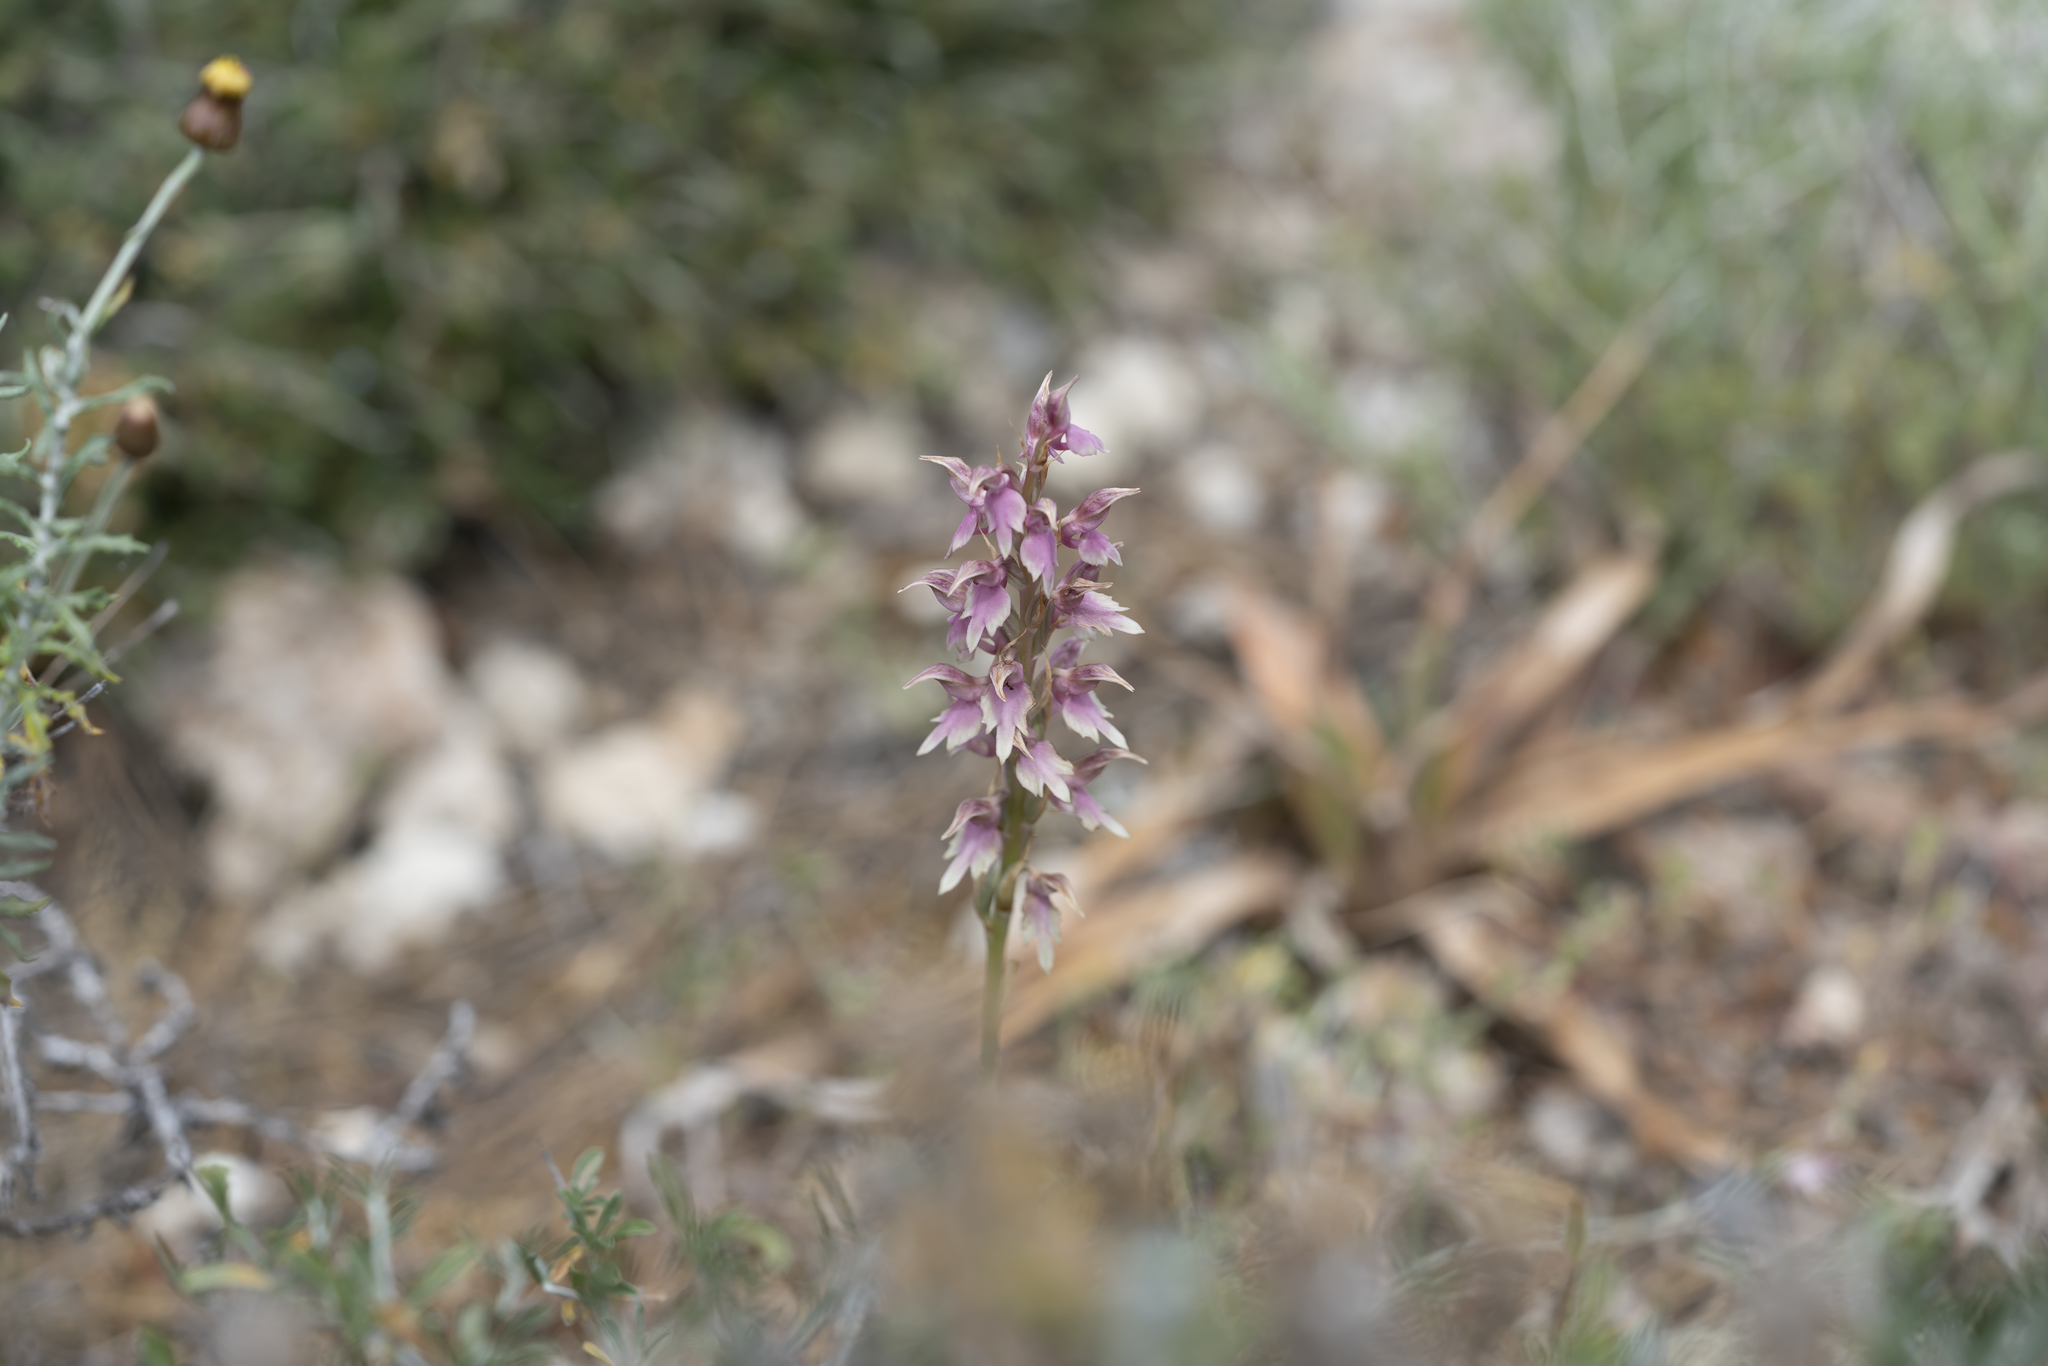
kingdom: Plantae
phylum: Tracheophyta
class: Liliopsida
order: Asparagales
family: Orchidaceae
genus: Anacamptis
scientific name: Anacamptis sancta
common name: Holy orchid
